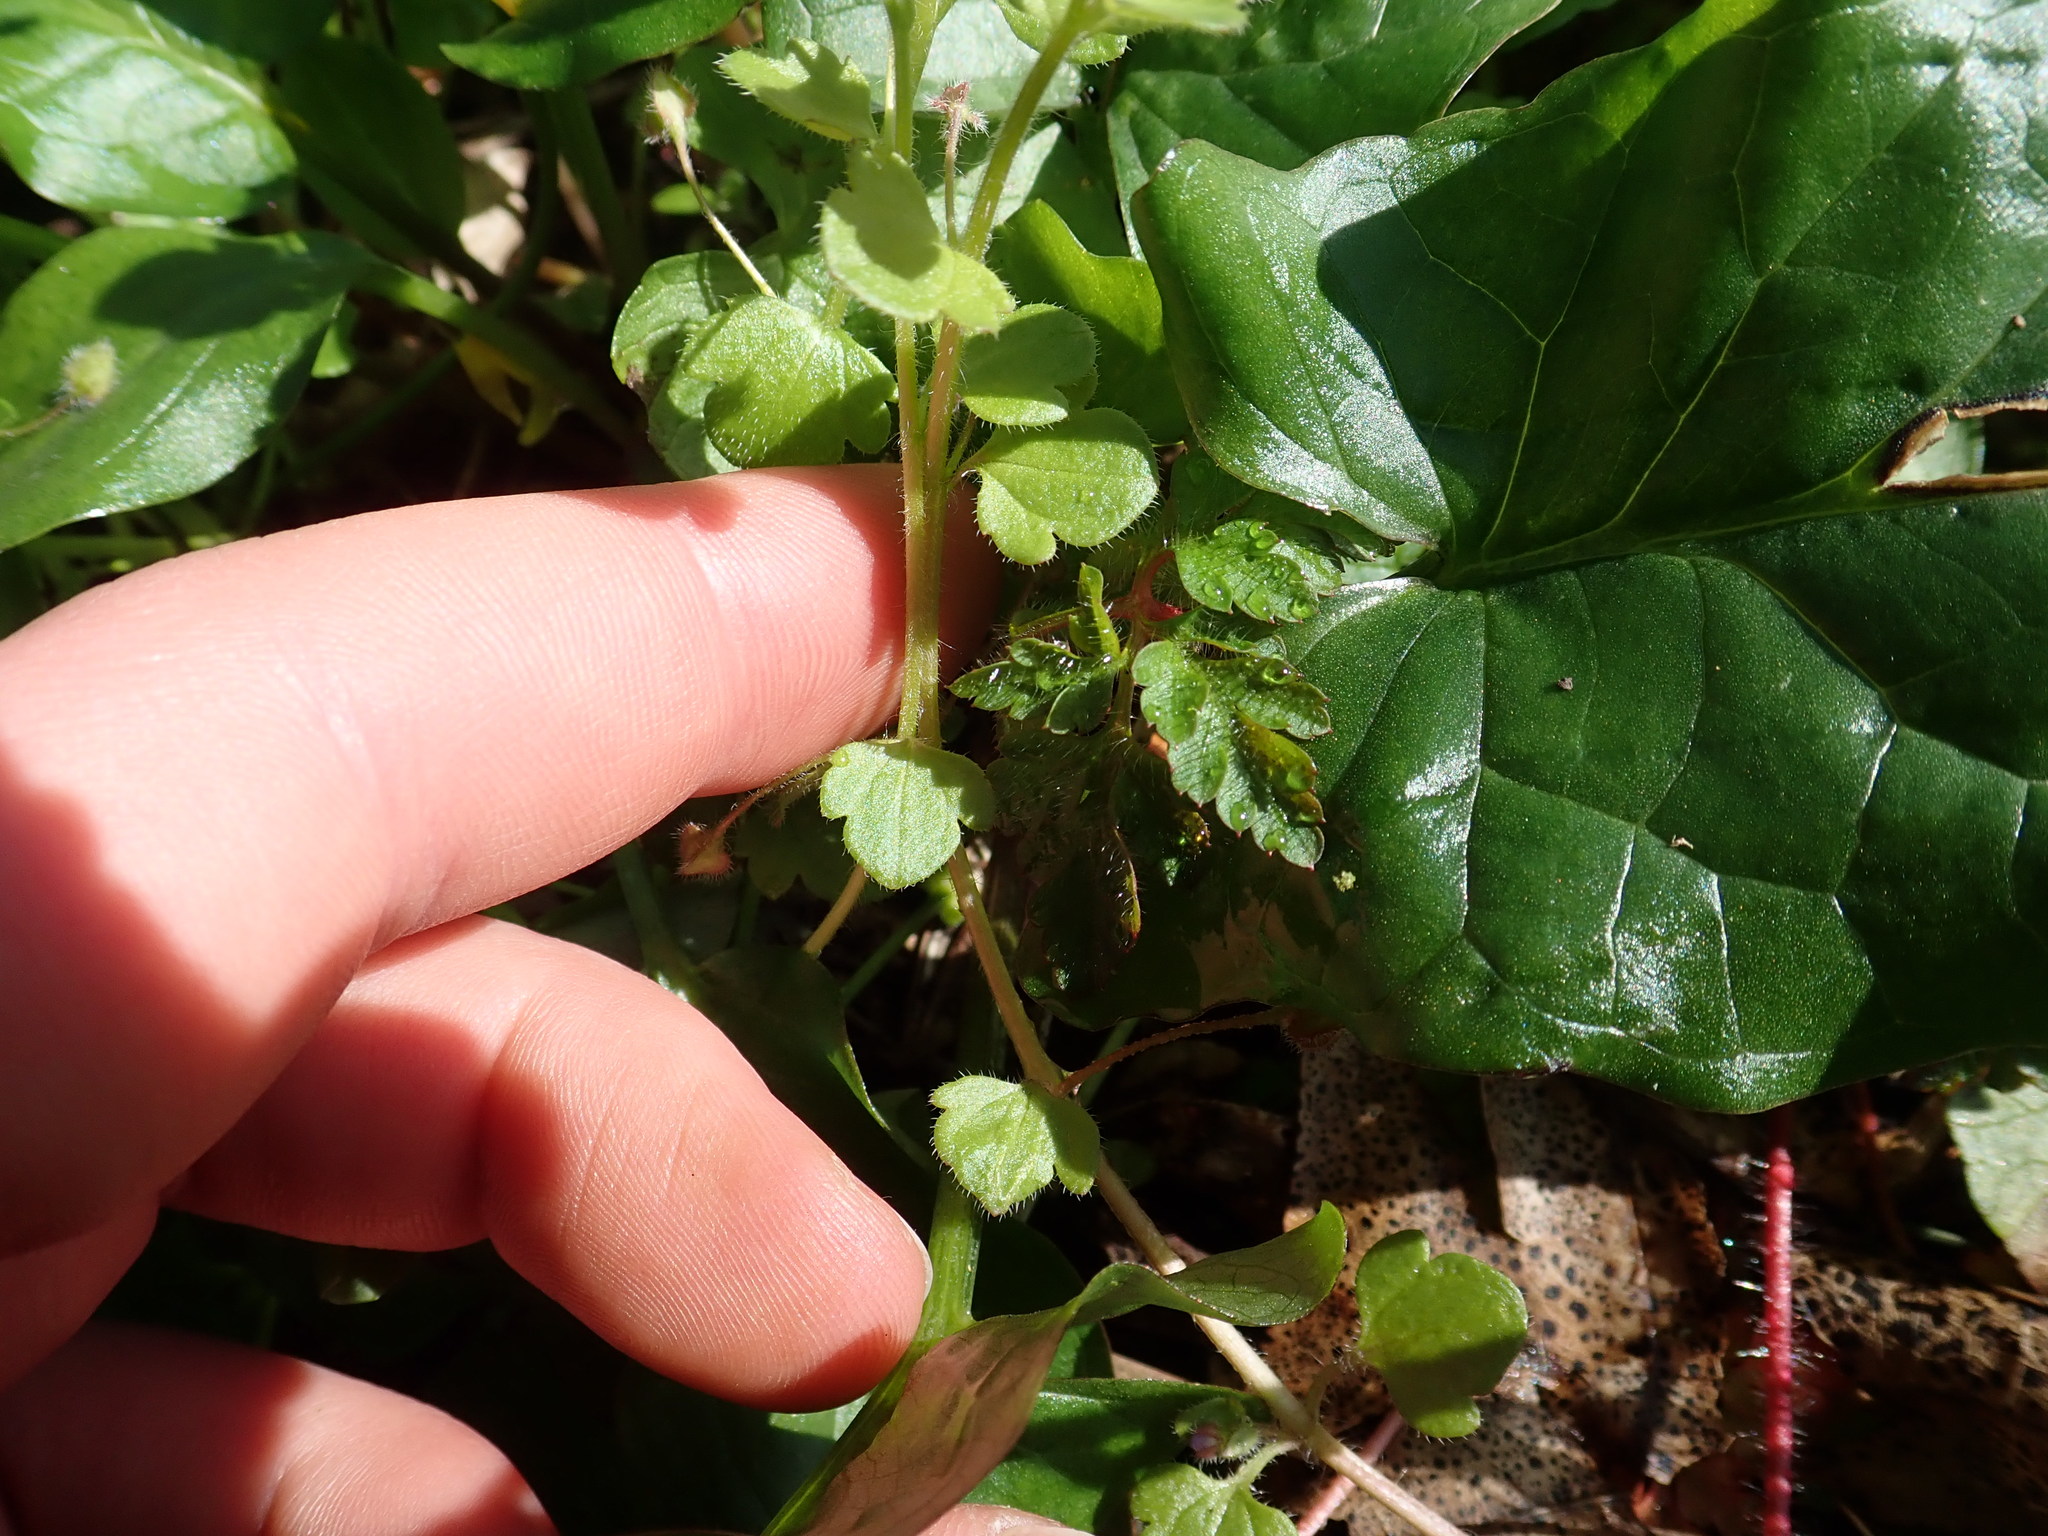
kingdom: Plantae
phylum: Tracheophyta
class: Magnoliopsida
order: Lamiales
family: Plantaginaceae
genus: Veronica
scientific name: Veronica hederifolia
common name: Ivy-leaved speedwell
